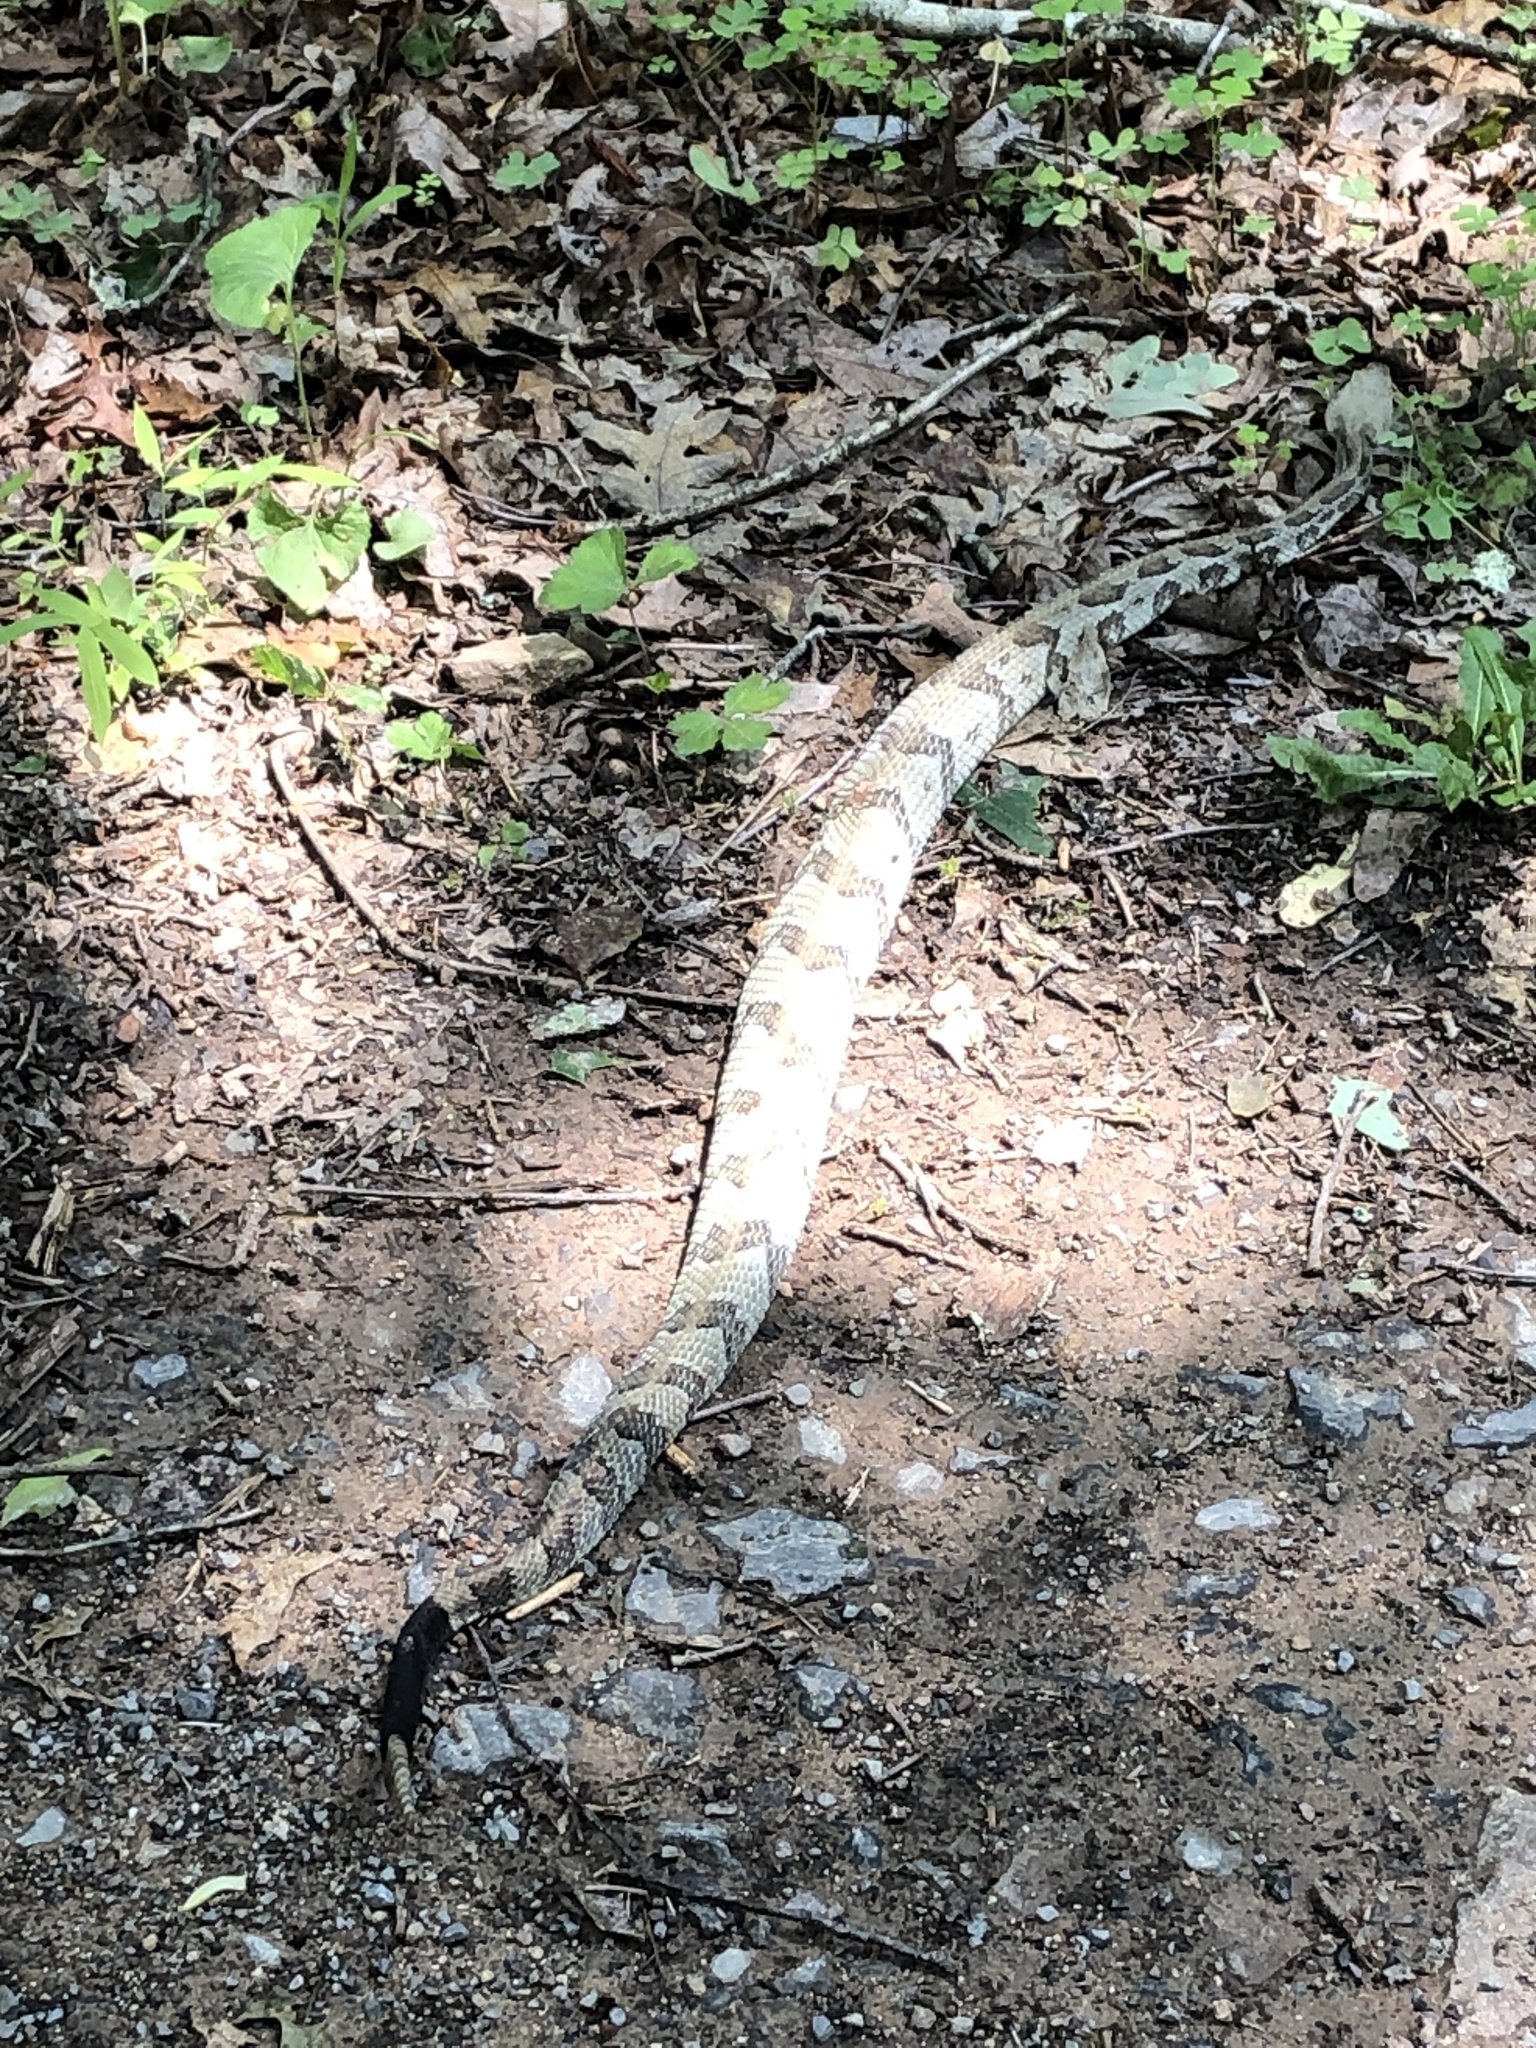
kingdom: Animalia
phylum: Chordata
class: Squamata
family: Viperidae
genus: Crotalus
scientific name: Crotalus horridus
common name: Timber rattlesnake
